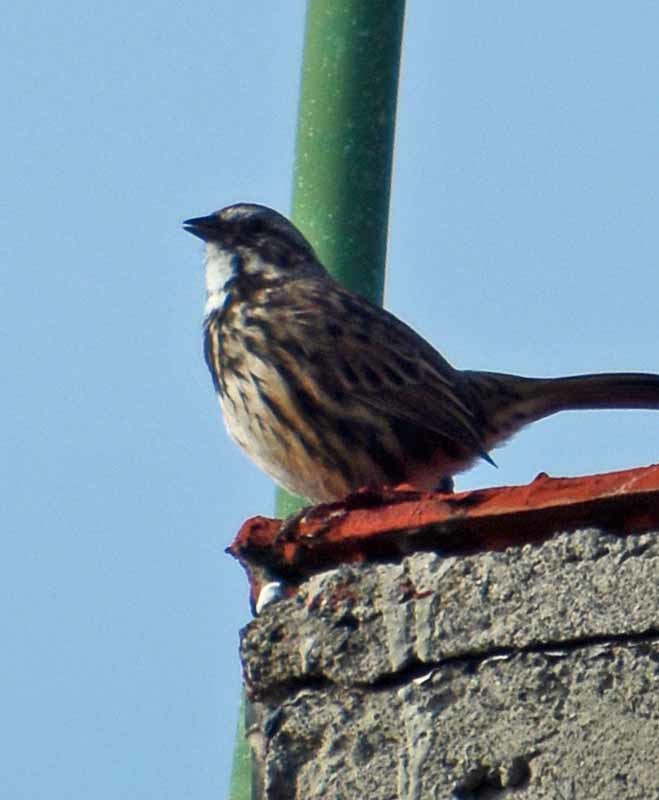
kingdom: Animalia
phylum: Chordata
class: Aves
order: Passeriformes
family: Passerellidae
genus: Melospiza
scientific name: Melospiza melodia
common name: Song sparrow
